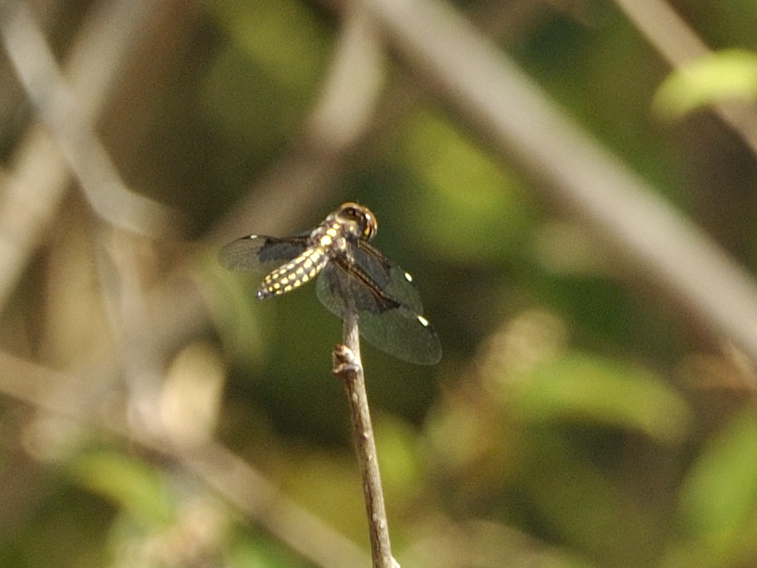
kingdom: Animalia
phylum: Arthropoda
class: Insecta
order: Odonata
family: Libellulidae
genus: Palpopleura
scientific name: Palpopleura vestita
